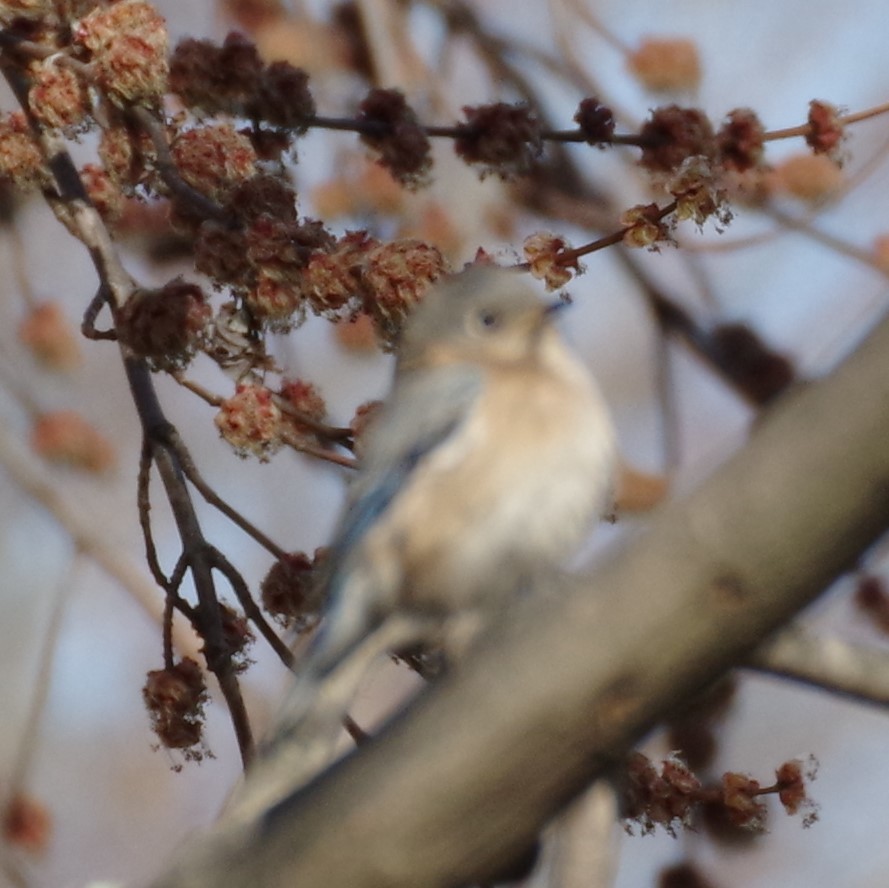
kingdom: Animalia
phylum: Chordata
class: Aves
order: Passeriformes
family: Turdidae
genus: Sialia
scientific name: Sialia sialis
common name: Eastern bluebird
